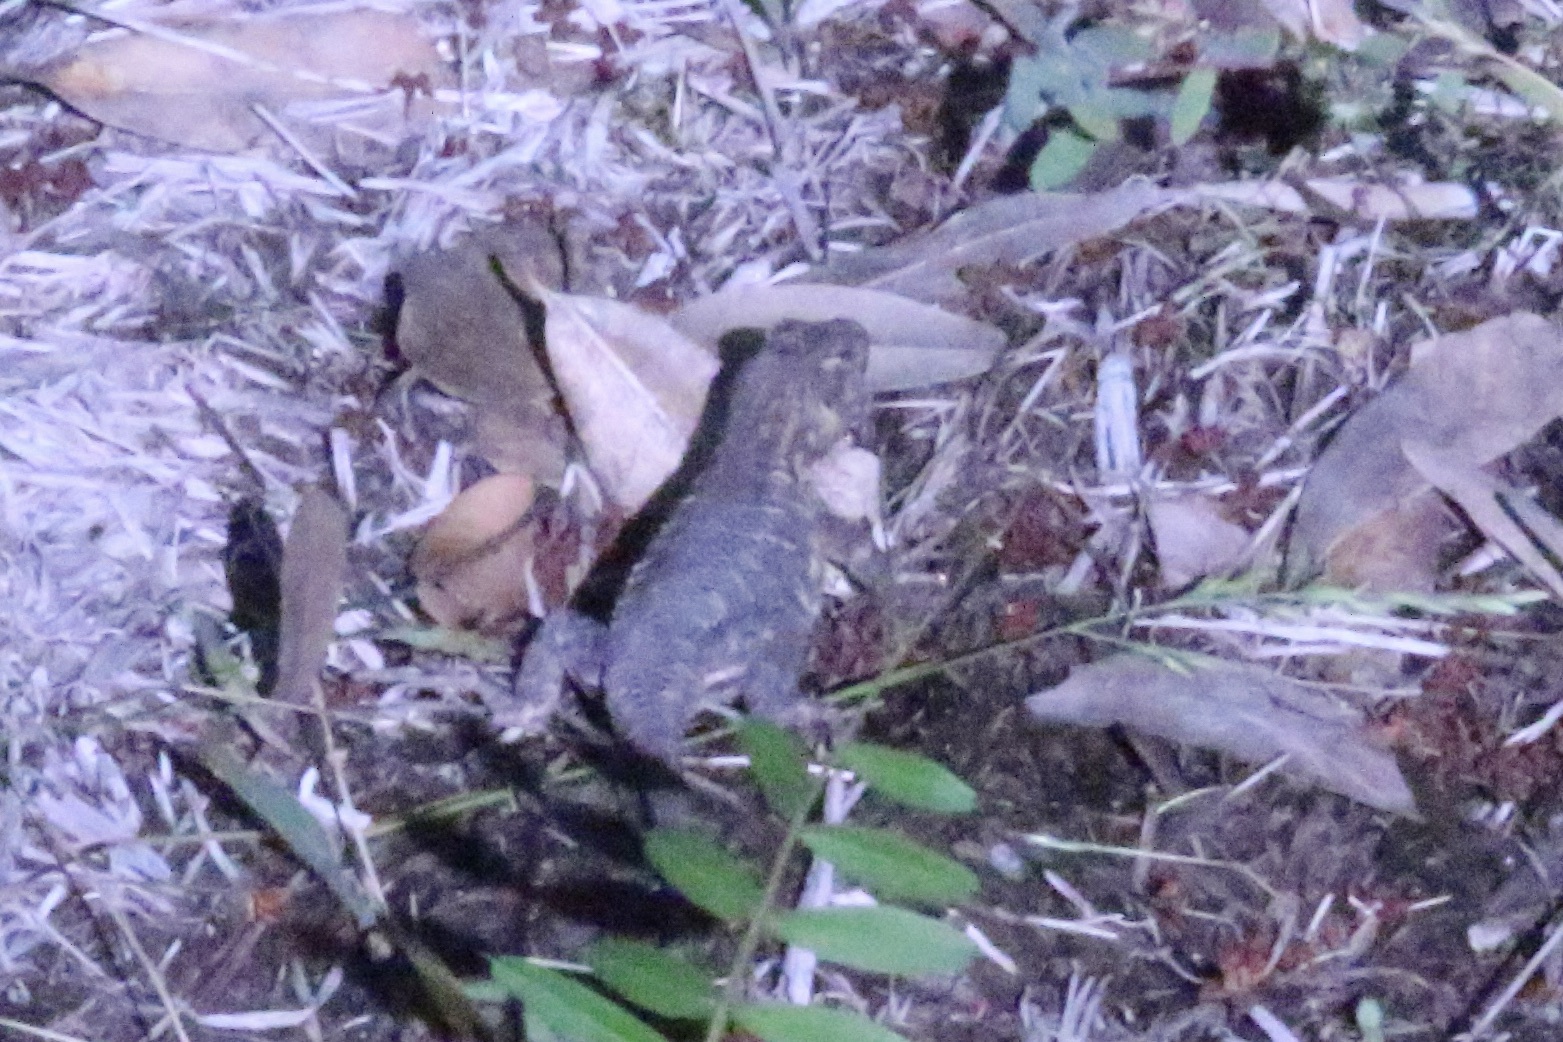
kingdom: Animalia
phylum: Chordata
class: Squamata
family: Phrynosomatidae
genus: Sceloporus
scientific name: Sceloporus occidentalis
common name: Western fence lizard
